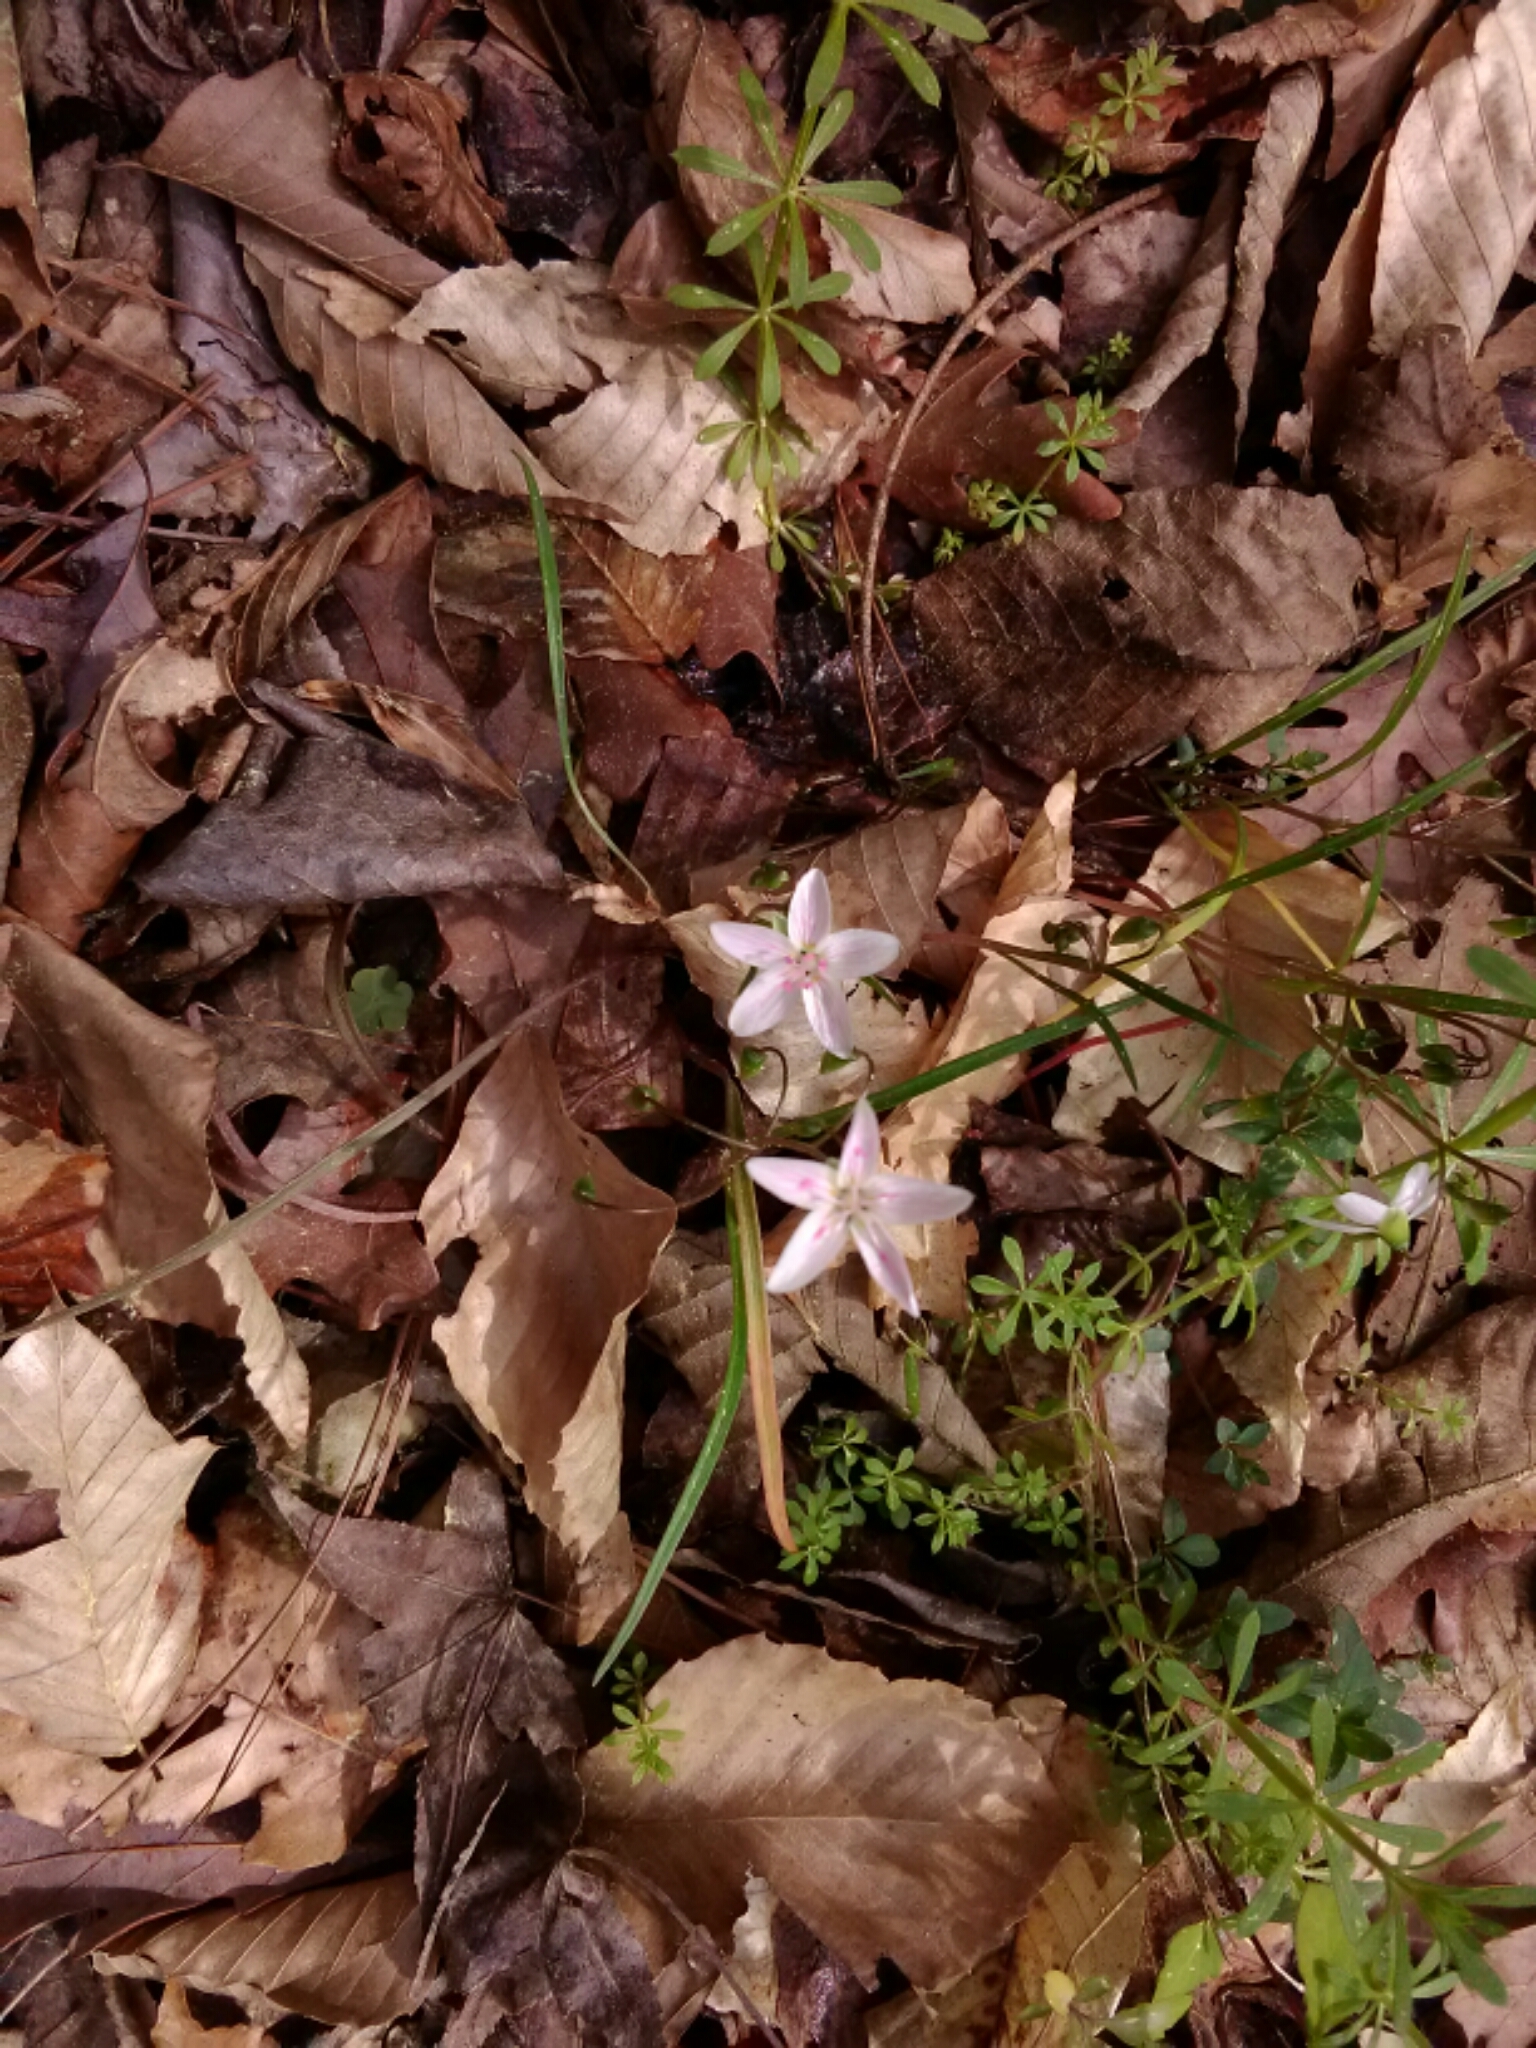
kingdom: Plantae
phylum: Tracheophyta
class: Magnoliopsida
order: Caryophyllales
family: Montiaceae
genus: Claytonia
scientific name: Claytonia virginica
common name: Virginia springbeauty
